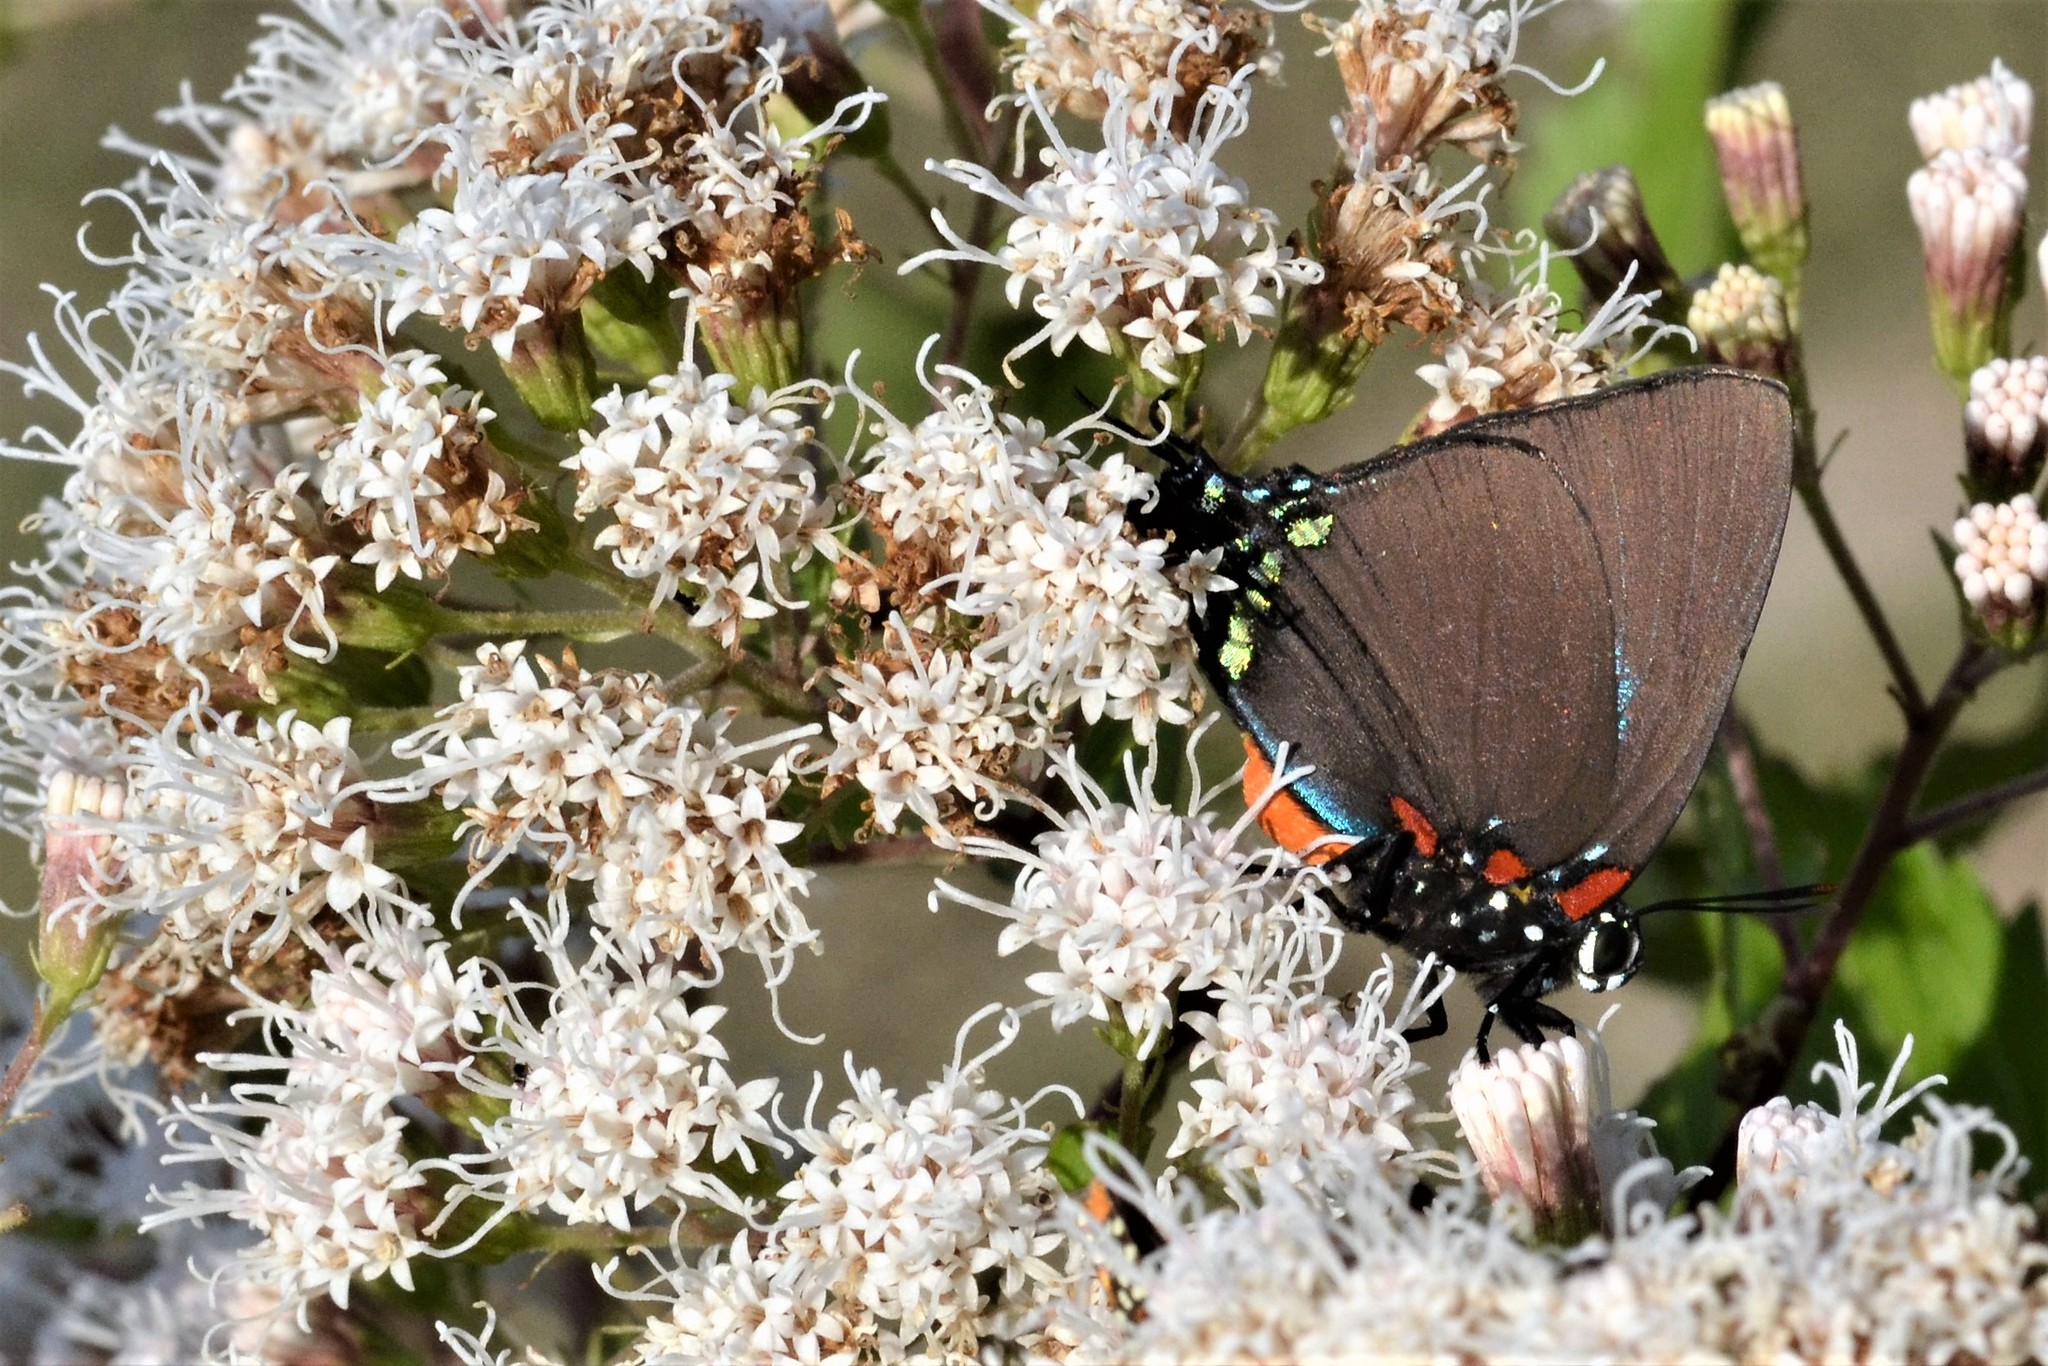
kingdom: Animalia
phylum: Arthropoda
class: Insecta
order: Lepidoptera
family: Lycaenidae
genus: Atlides
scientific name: Atlides halesus
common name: Great purple hairstreak
